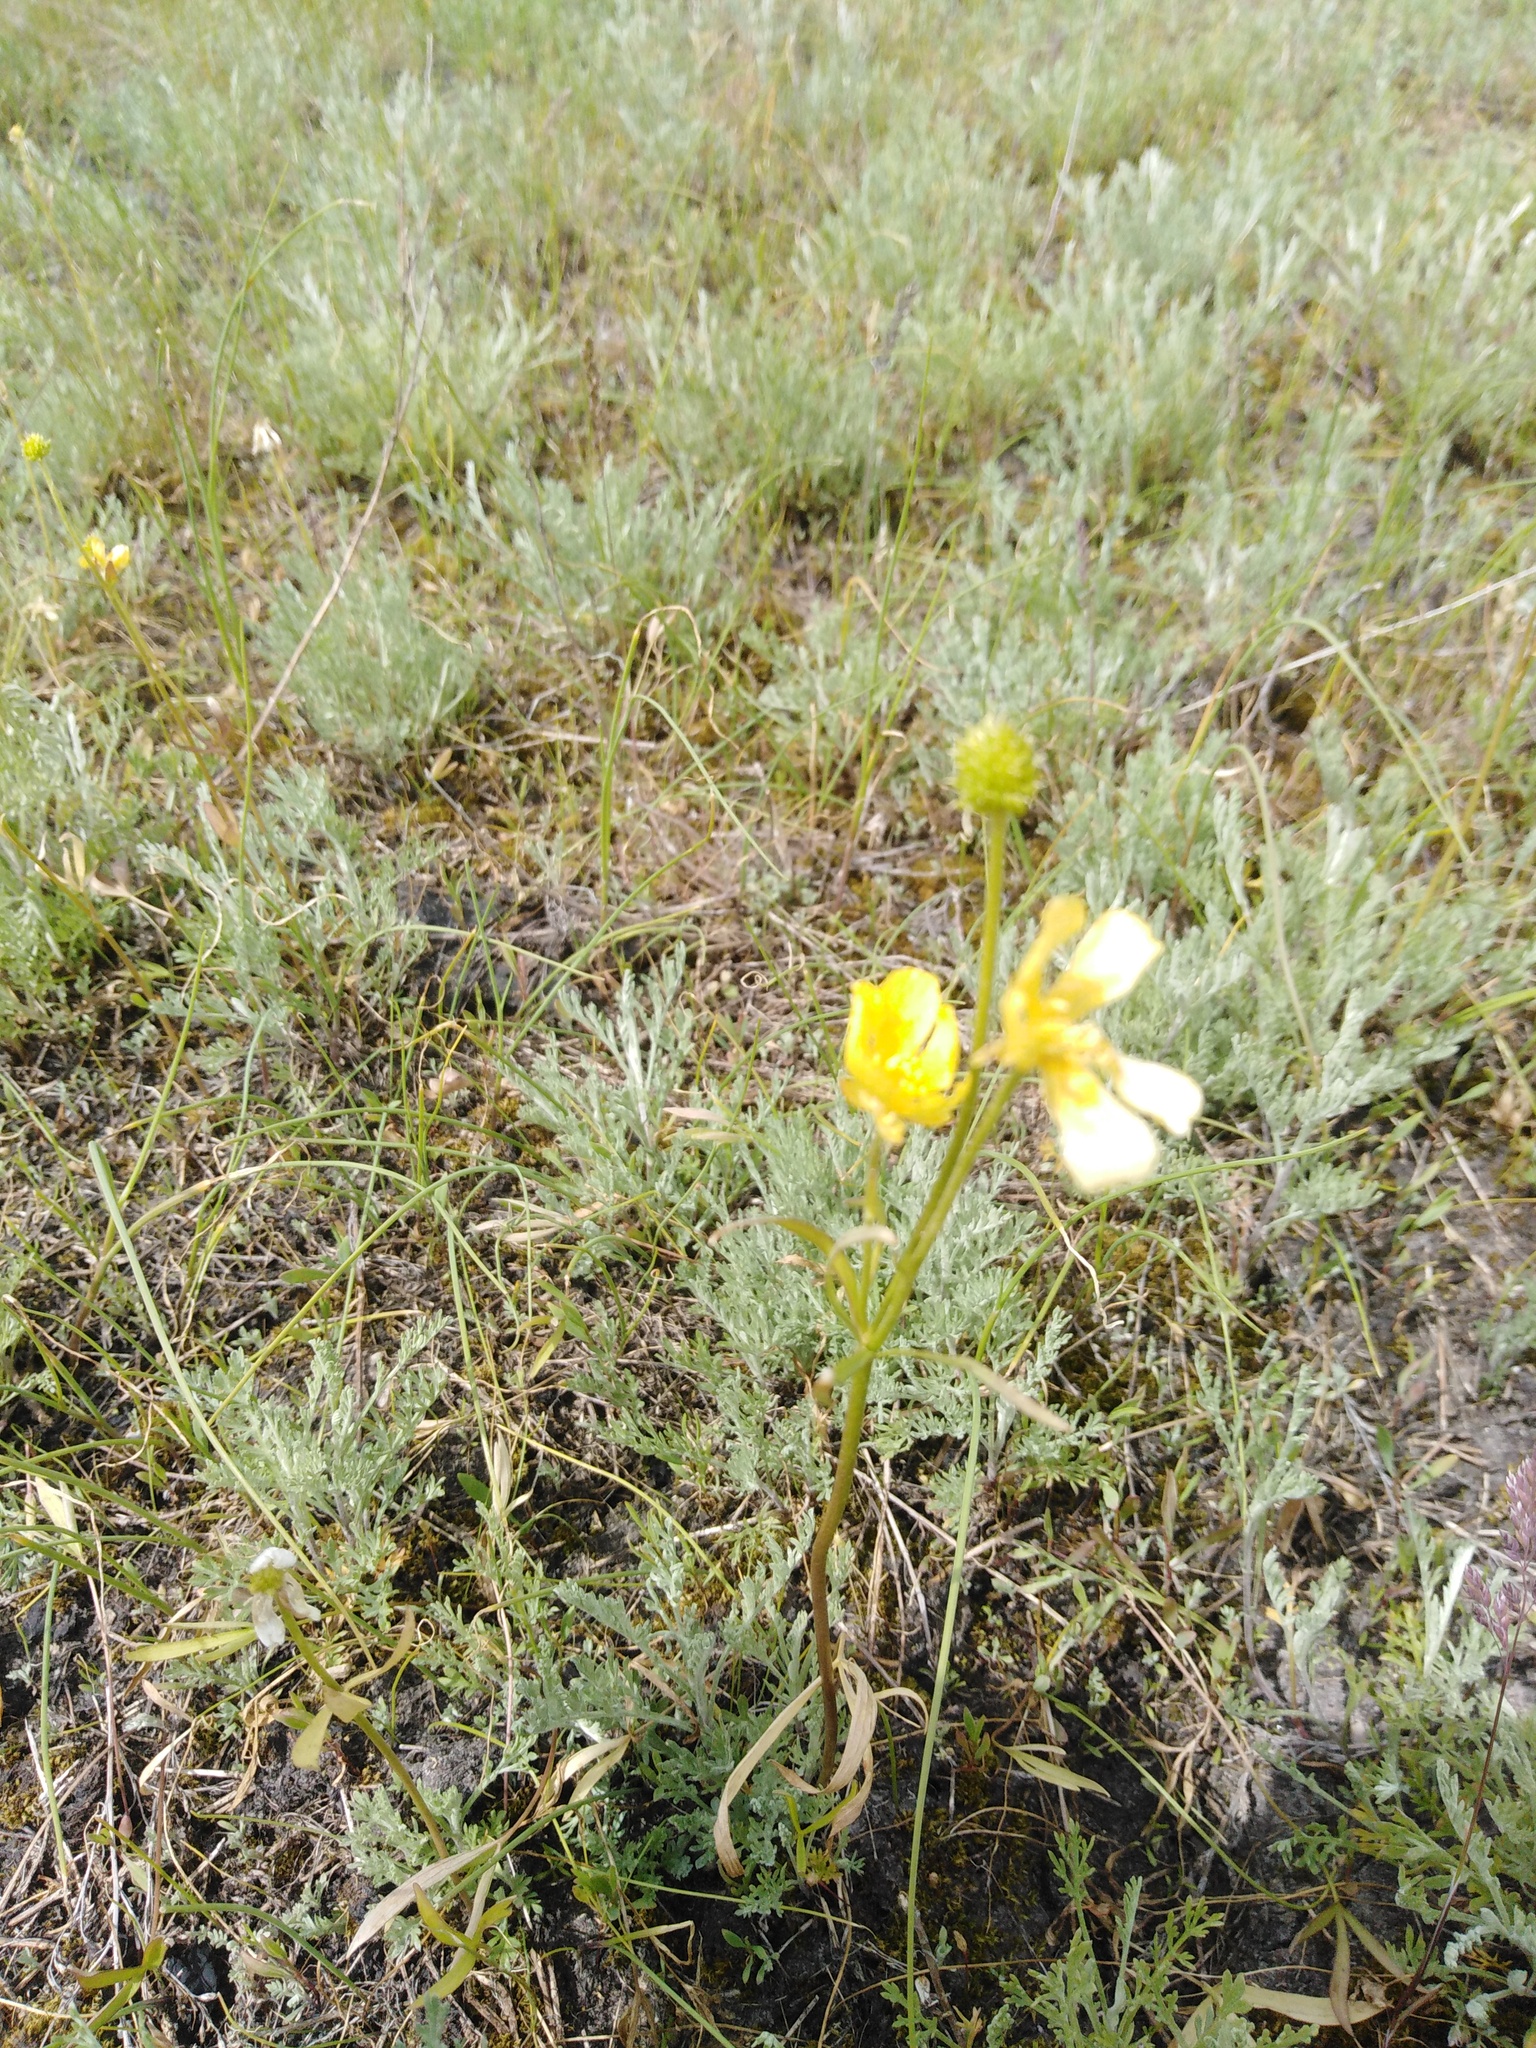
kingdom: Plantae
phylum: Tracheophyta
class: Magnoliopsida
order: Ranunculales
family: Ranunculaceae
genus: Ranunculus
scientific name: Ranunculus pedatus
